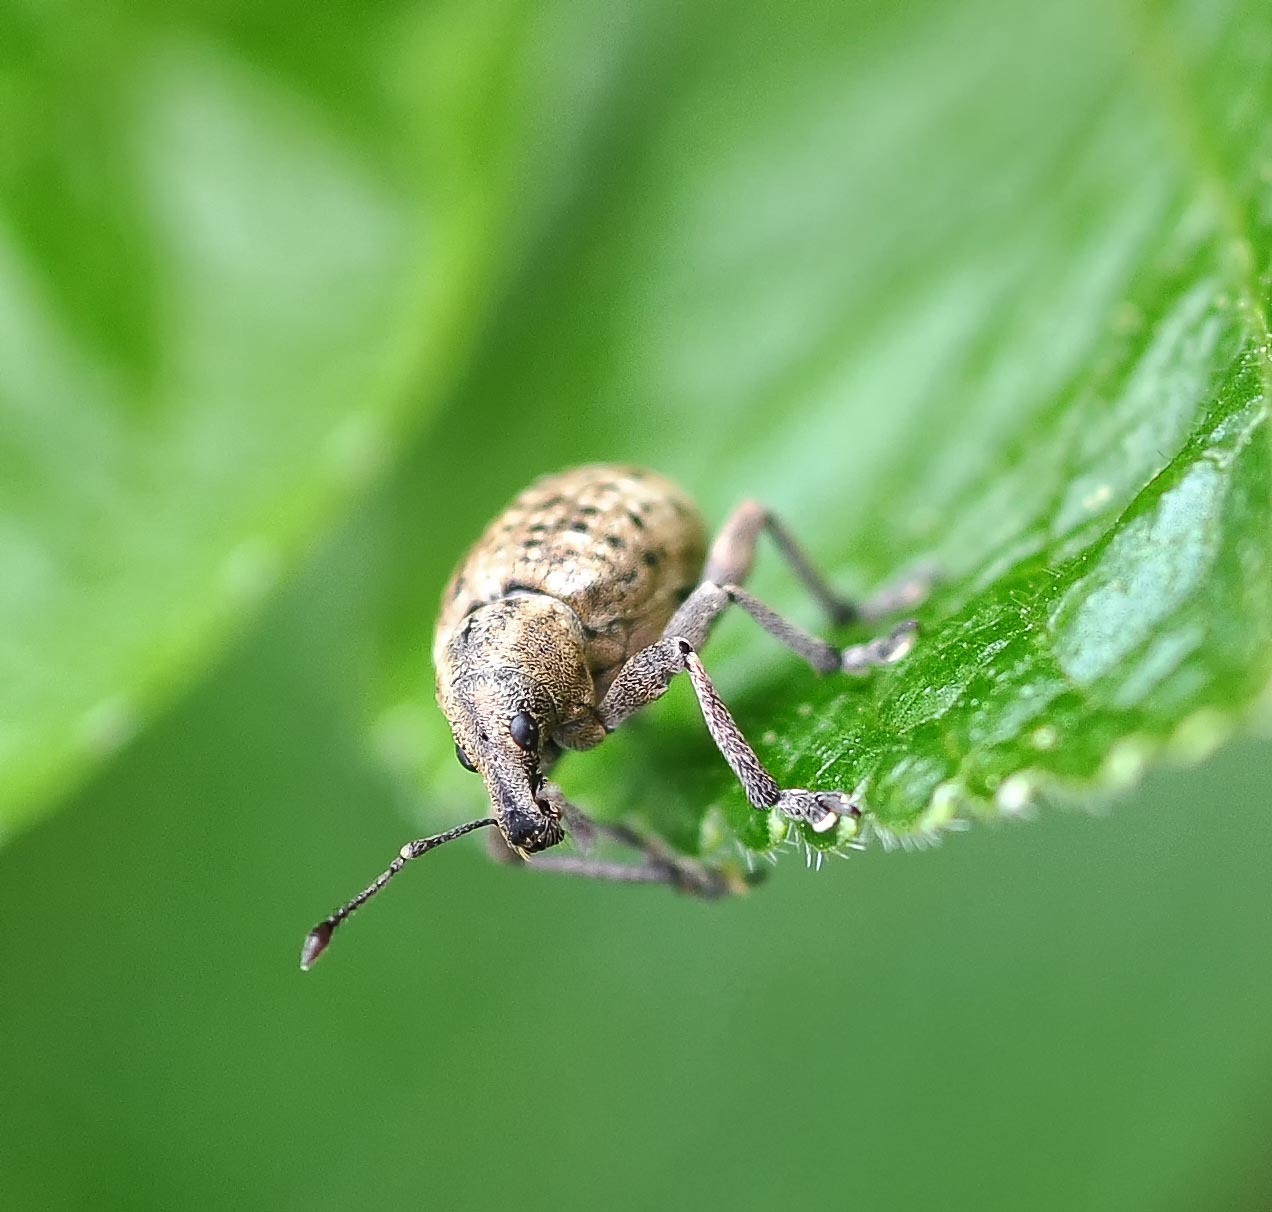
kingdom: Animalia
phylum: Arthropoda
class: Insecta
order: Coleoptera
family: Curculionidae
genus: Liophloeus
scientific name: Liophloeus tessulatus
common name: Weevil
